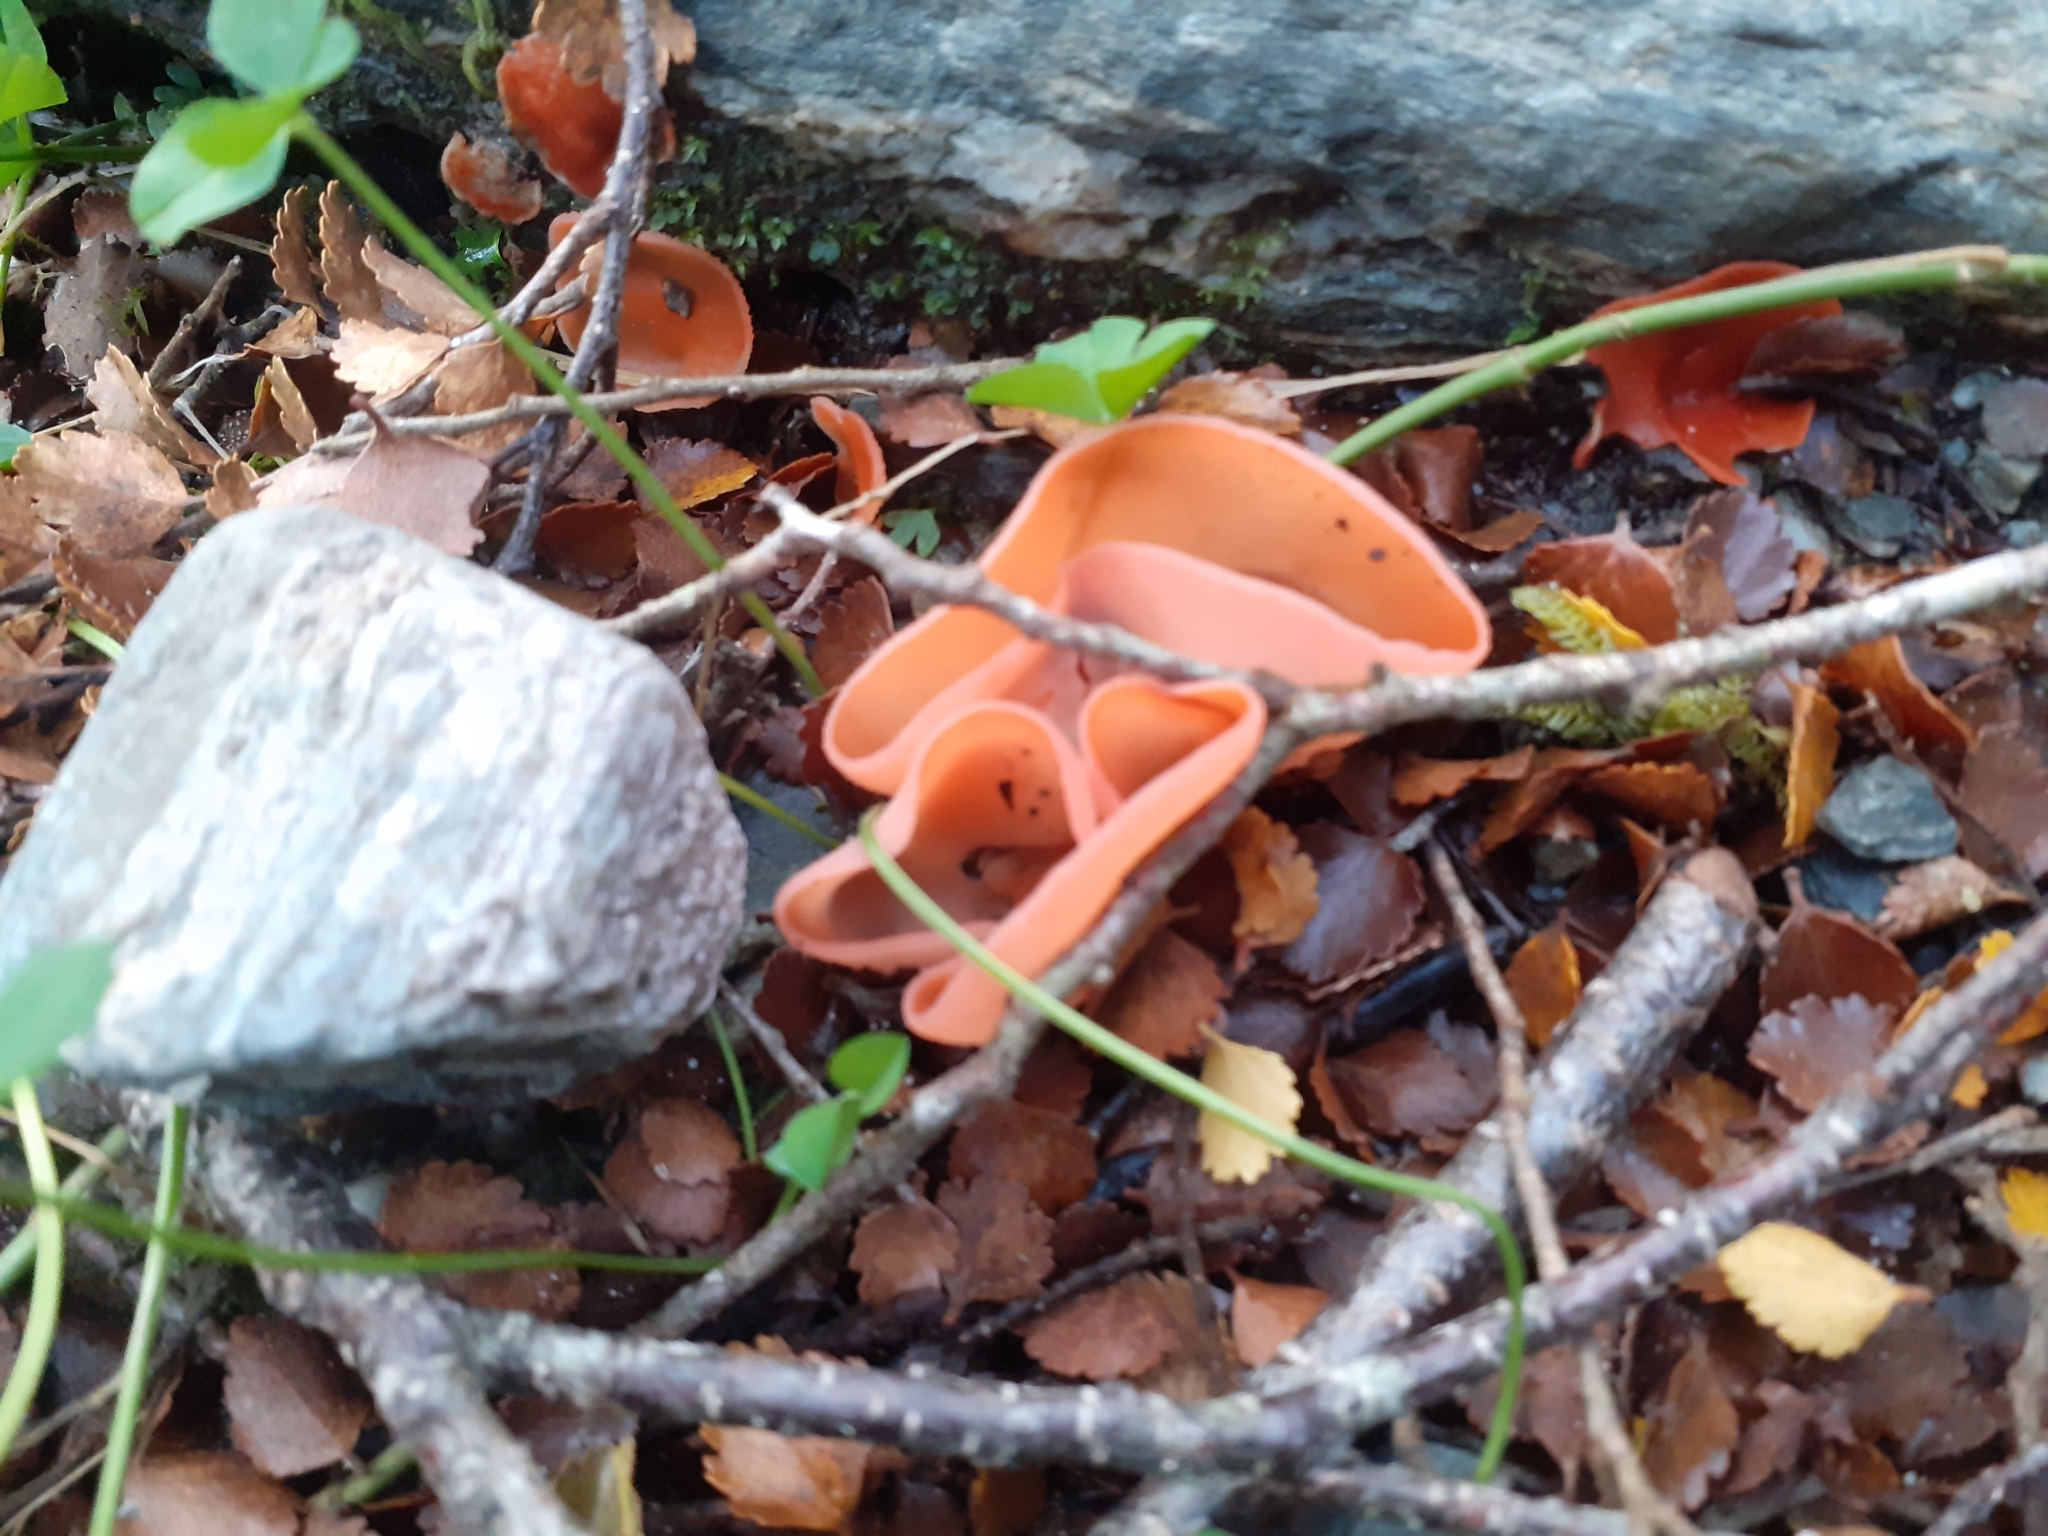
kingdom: Fungi
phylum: Ascomycota
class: Pezizomycetes
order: Pezizales
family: Pyronemataceae
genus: Aleuria
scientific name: Aleuria aurantia
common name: Orange peel fungus
